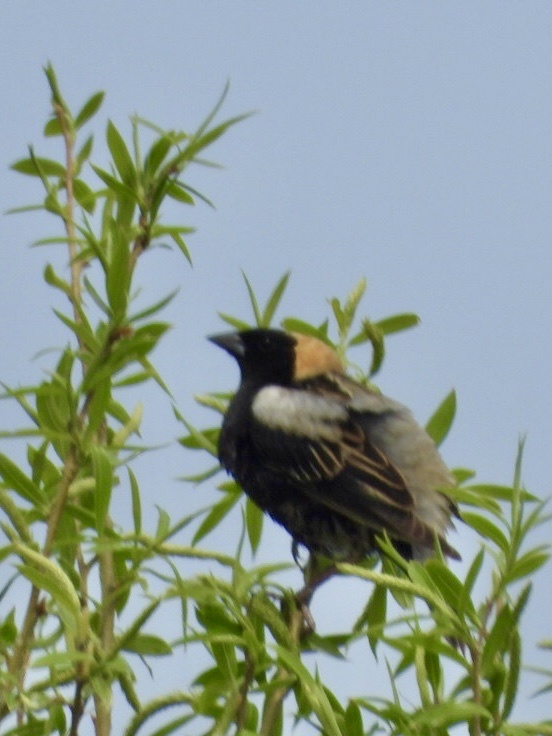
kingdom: Animalia
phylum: Chordata
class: Aves
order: Passeriformes
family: Icteridae
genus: Dolichonyx
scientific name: Dolichonyx oryzivorus
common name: Bobolink
